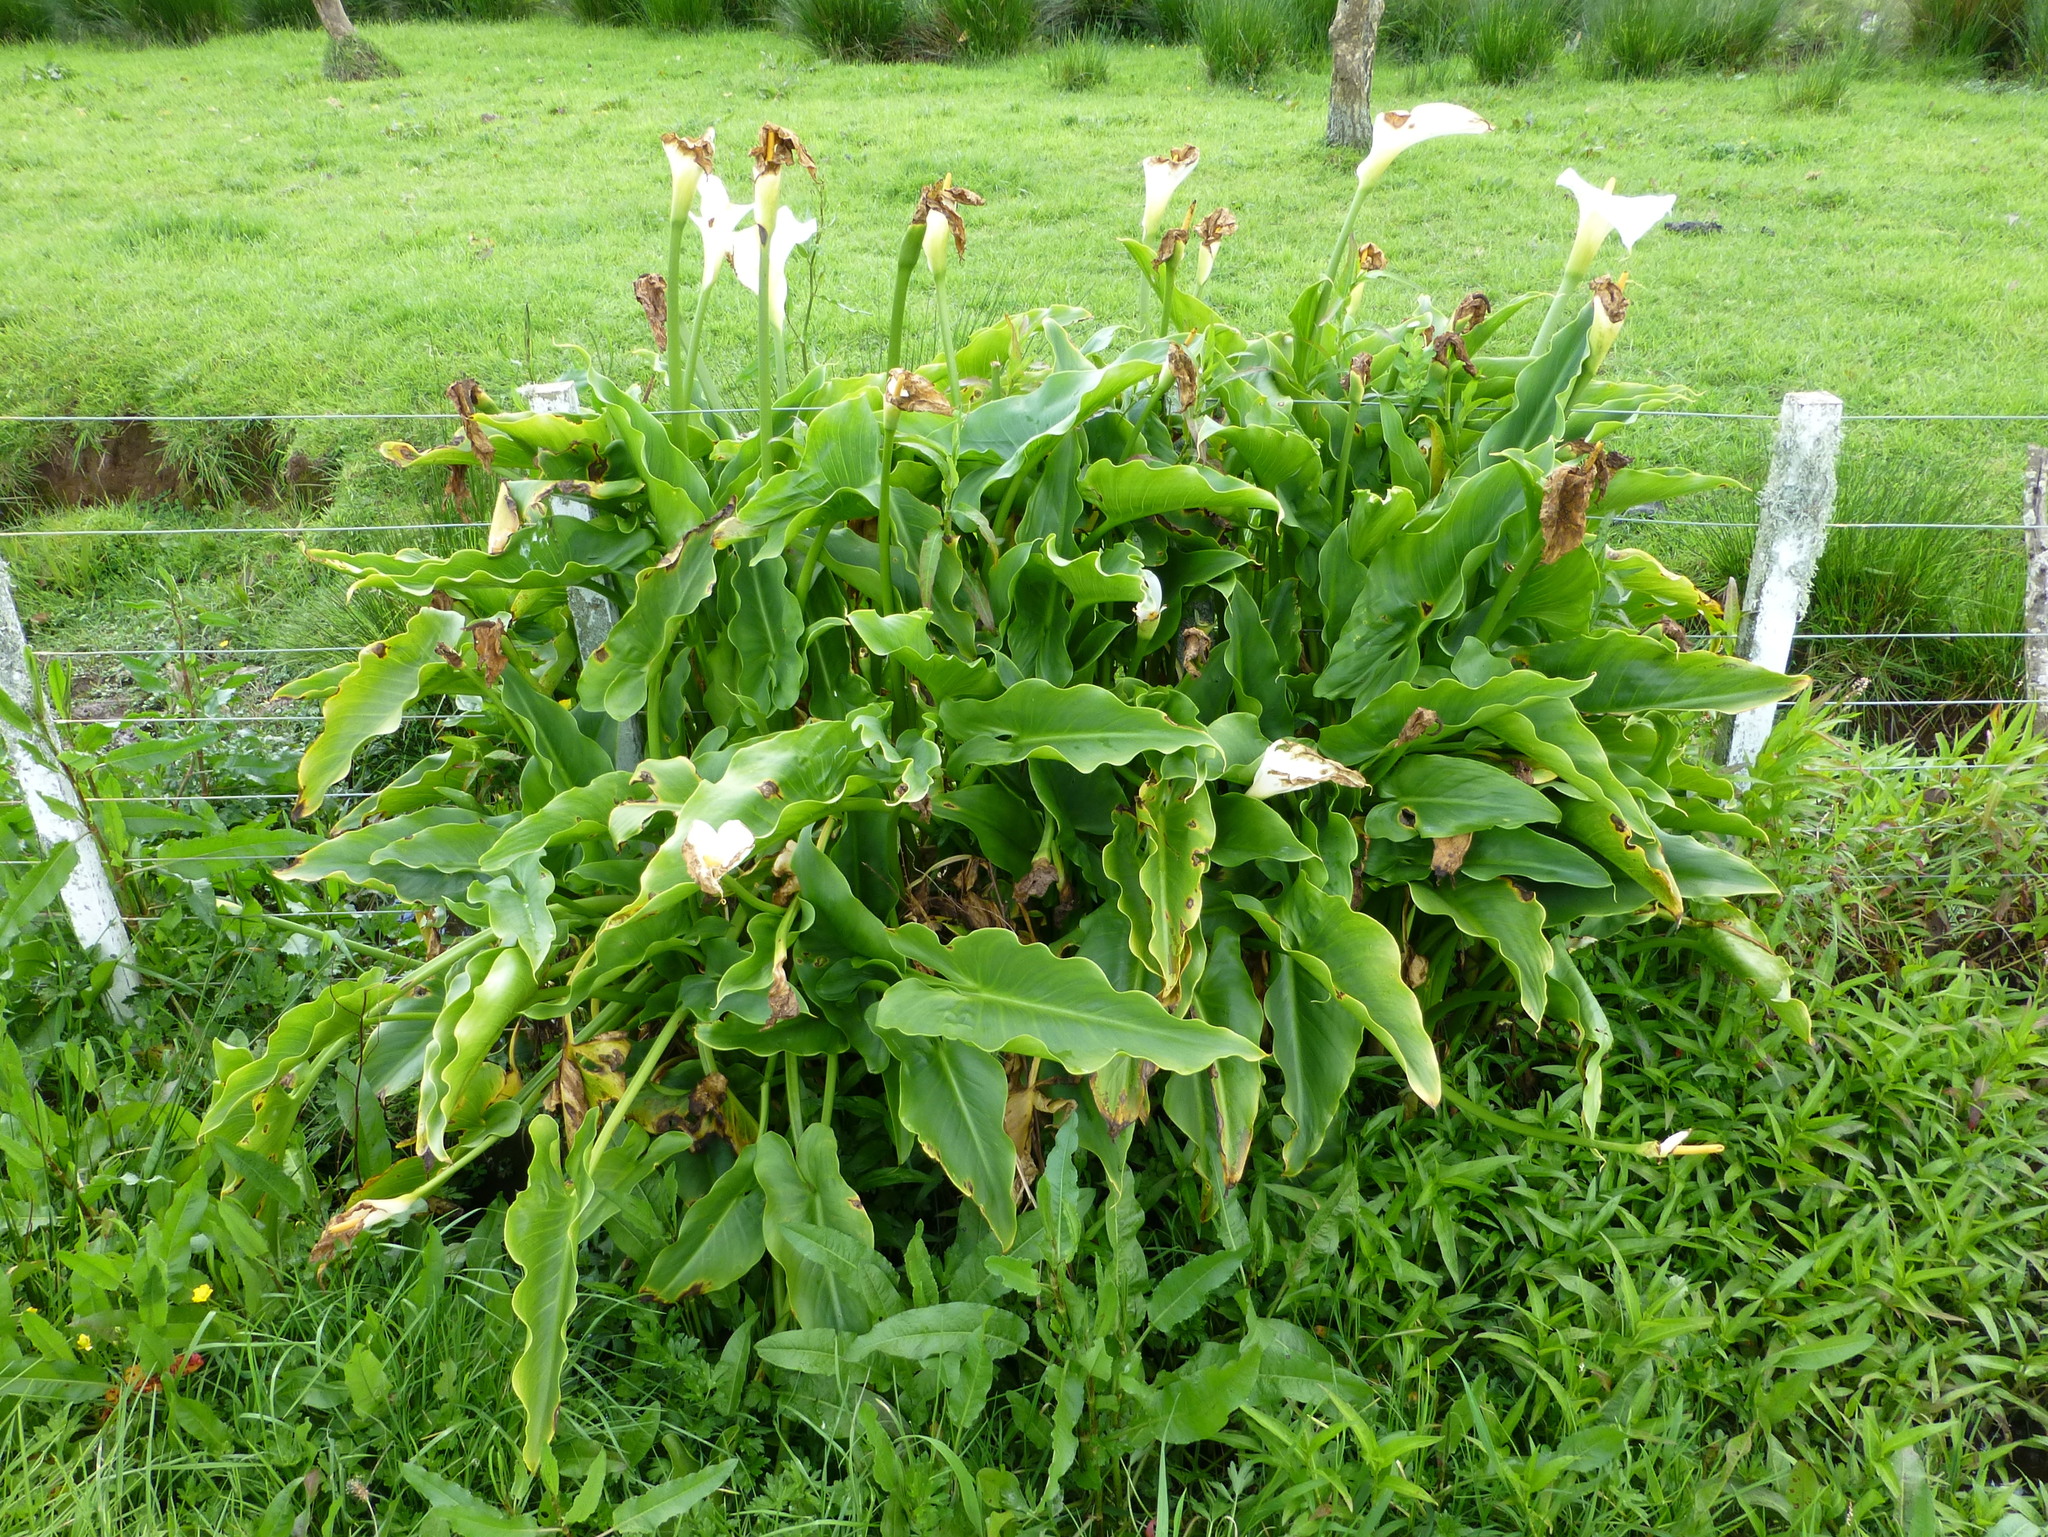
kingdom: Plantae
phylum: Tracheophyta
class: Liliopsida
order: Alismatales
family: Araceae
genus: Zantedeschia
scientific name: Zantedeschia aethiopica
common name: Altar-lily
